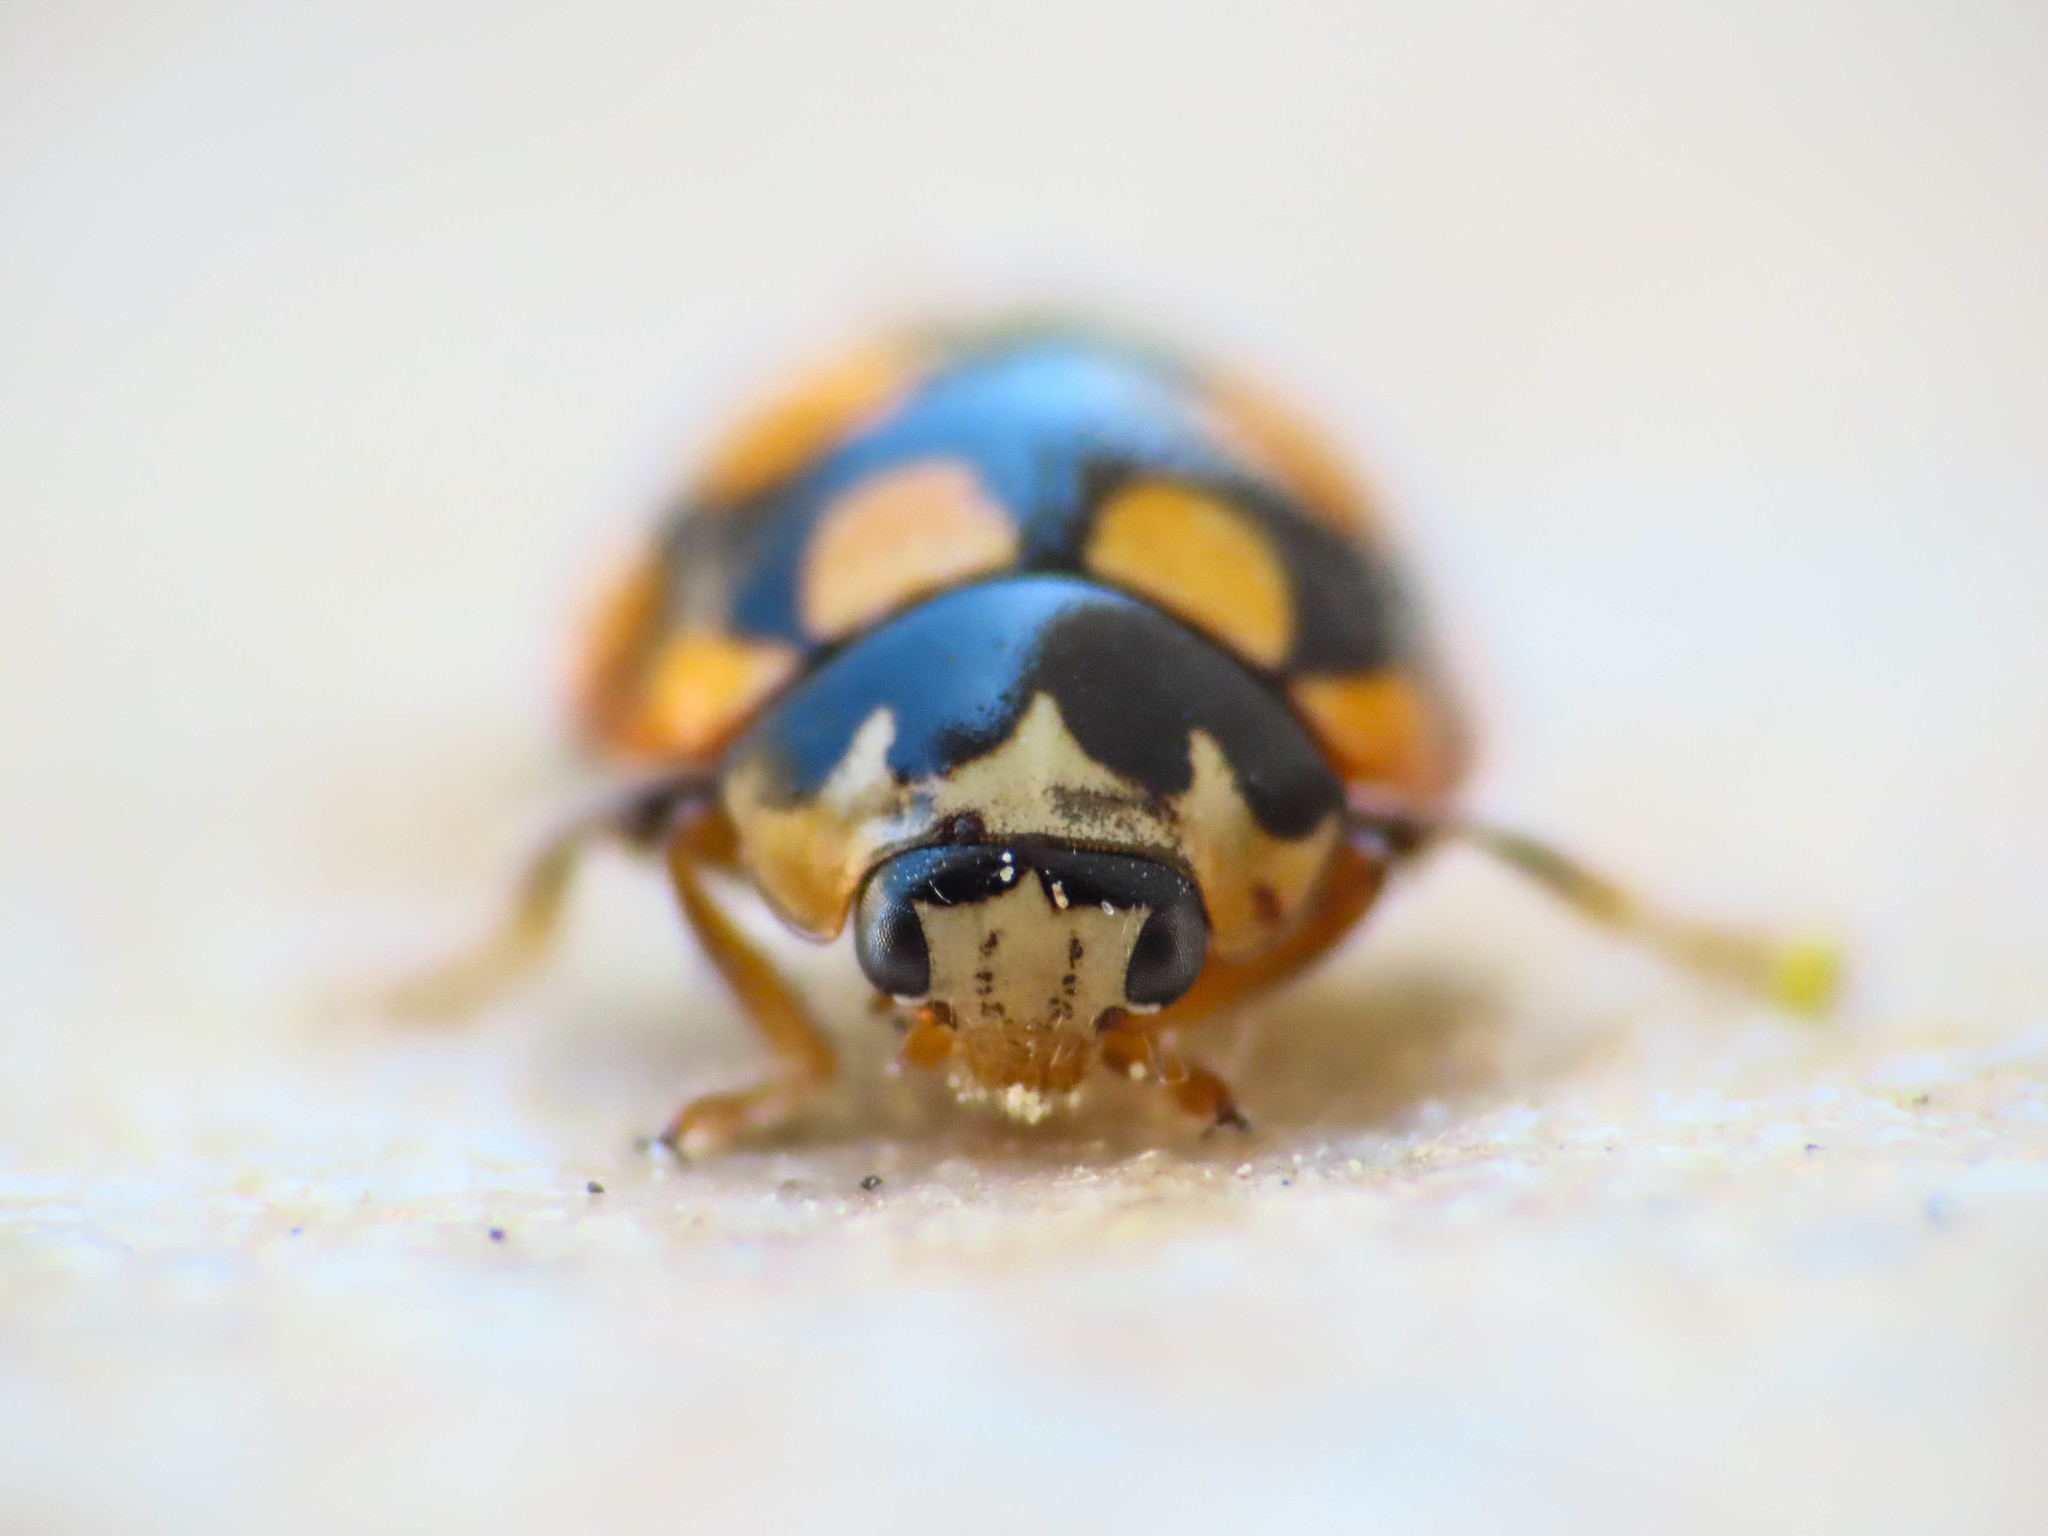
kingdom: Animalia
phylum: Arthropoda
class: Insecta
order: Coleoptera
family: Coccinellidae
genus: Coccinula
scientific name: Coccinula quatuordecimpustulata
